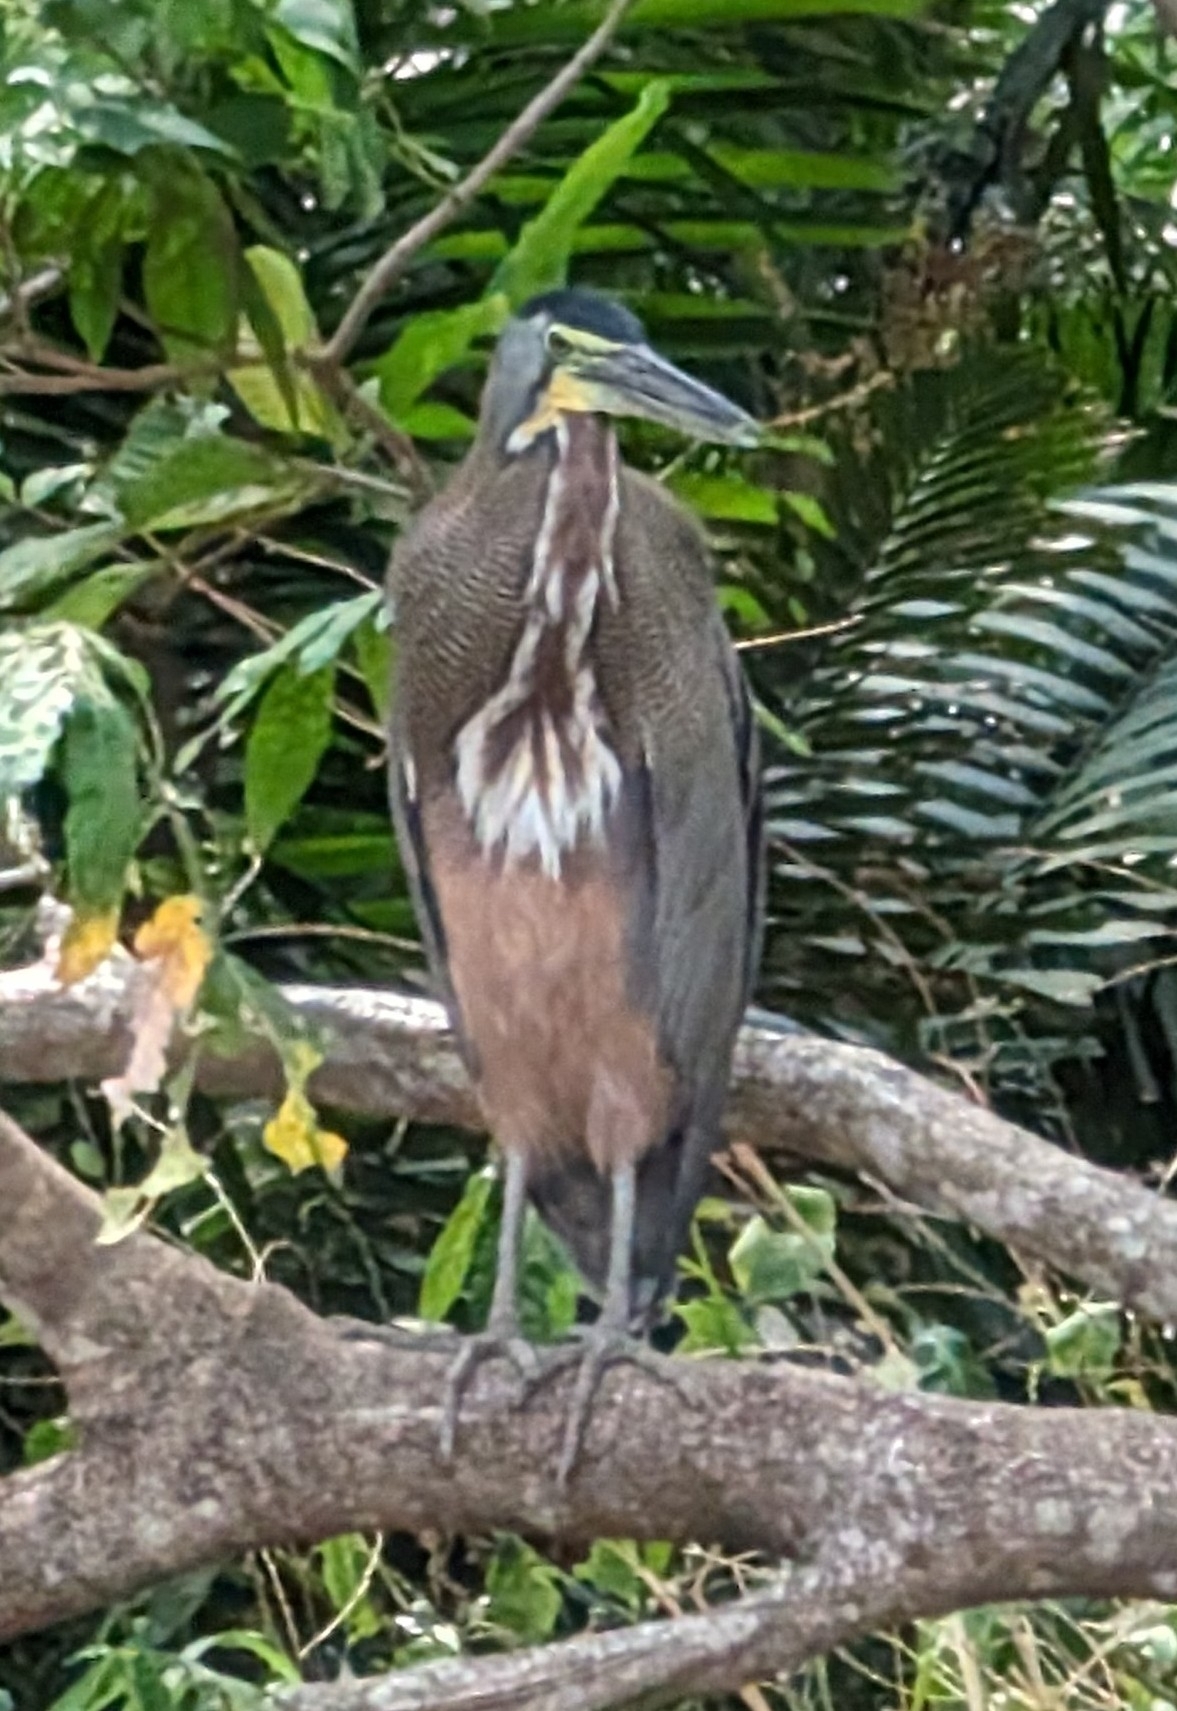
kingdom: Animalia
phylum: Chordata
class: Aves
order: Pelecaniformes
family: Ardeidae
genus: Tigrisoma
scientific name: Tigrisoma mexicanum
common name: Bare-throated tiger-heron
